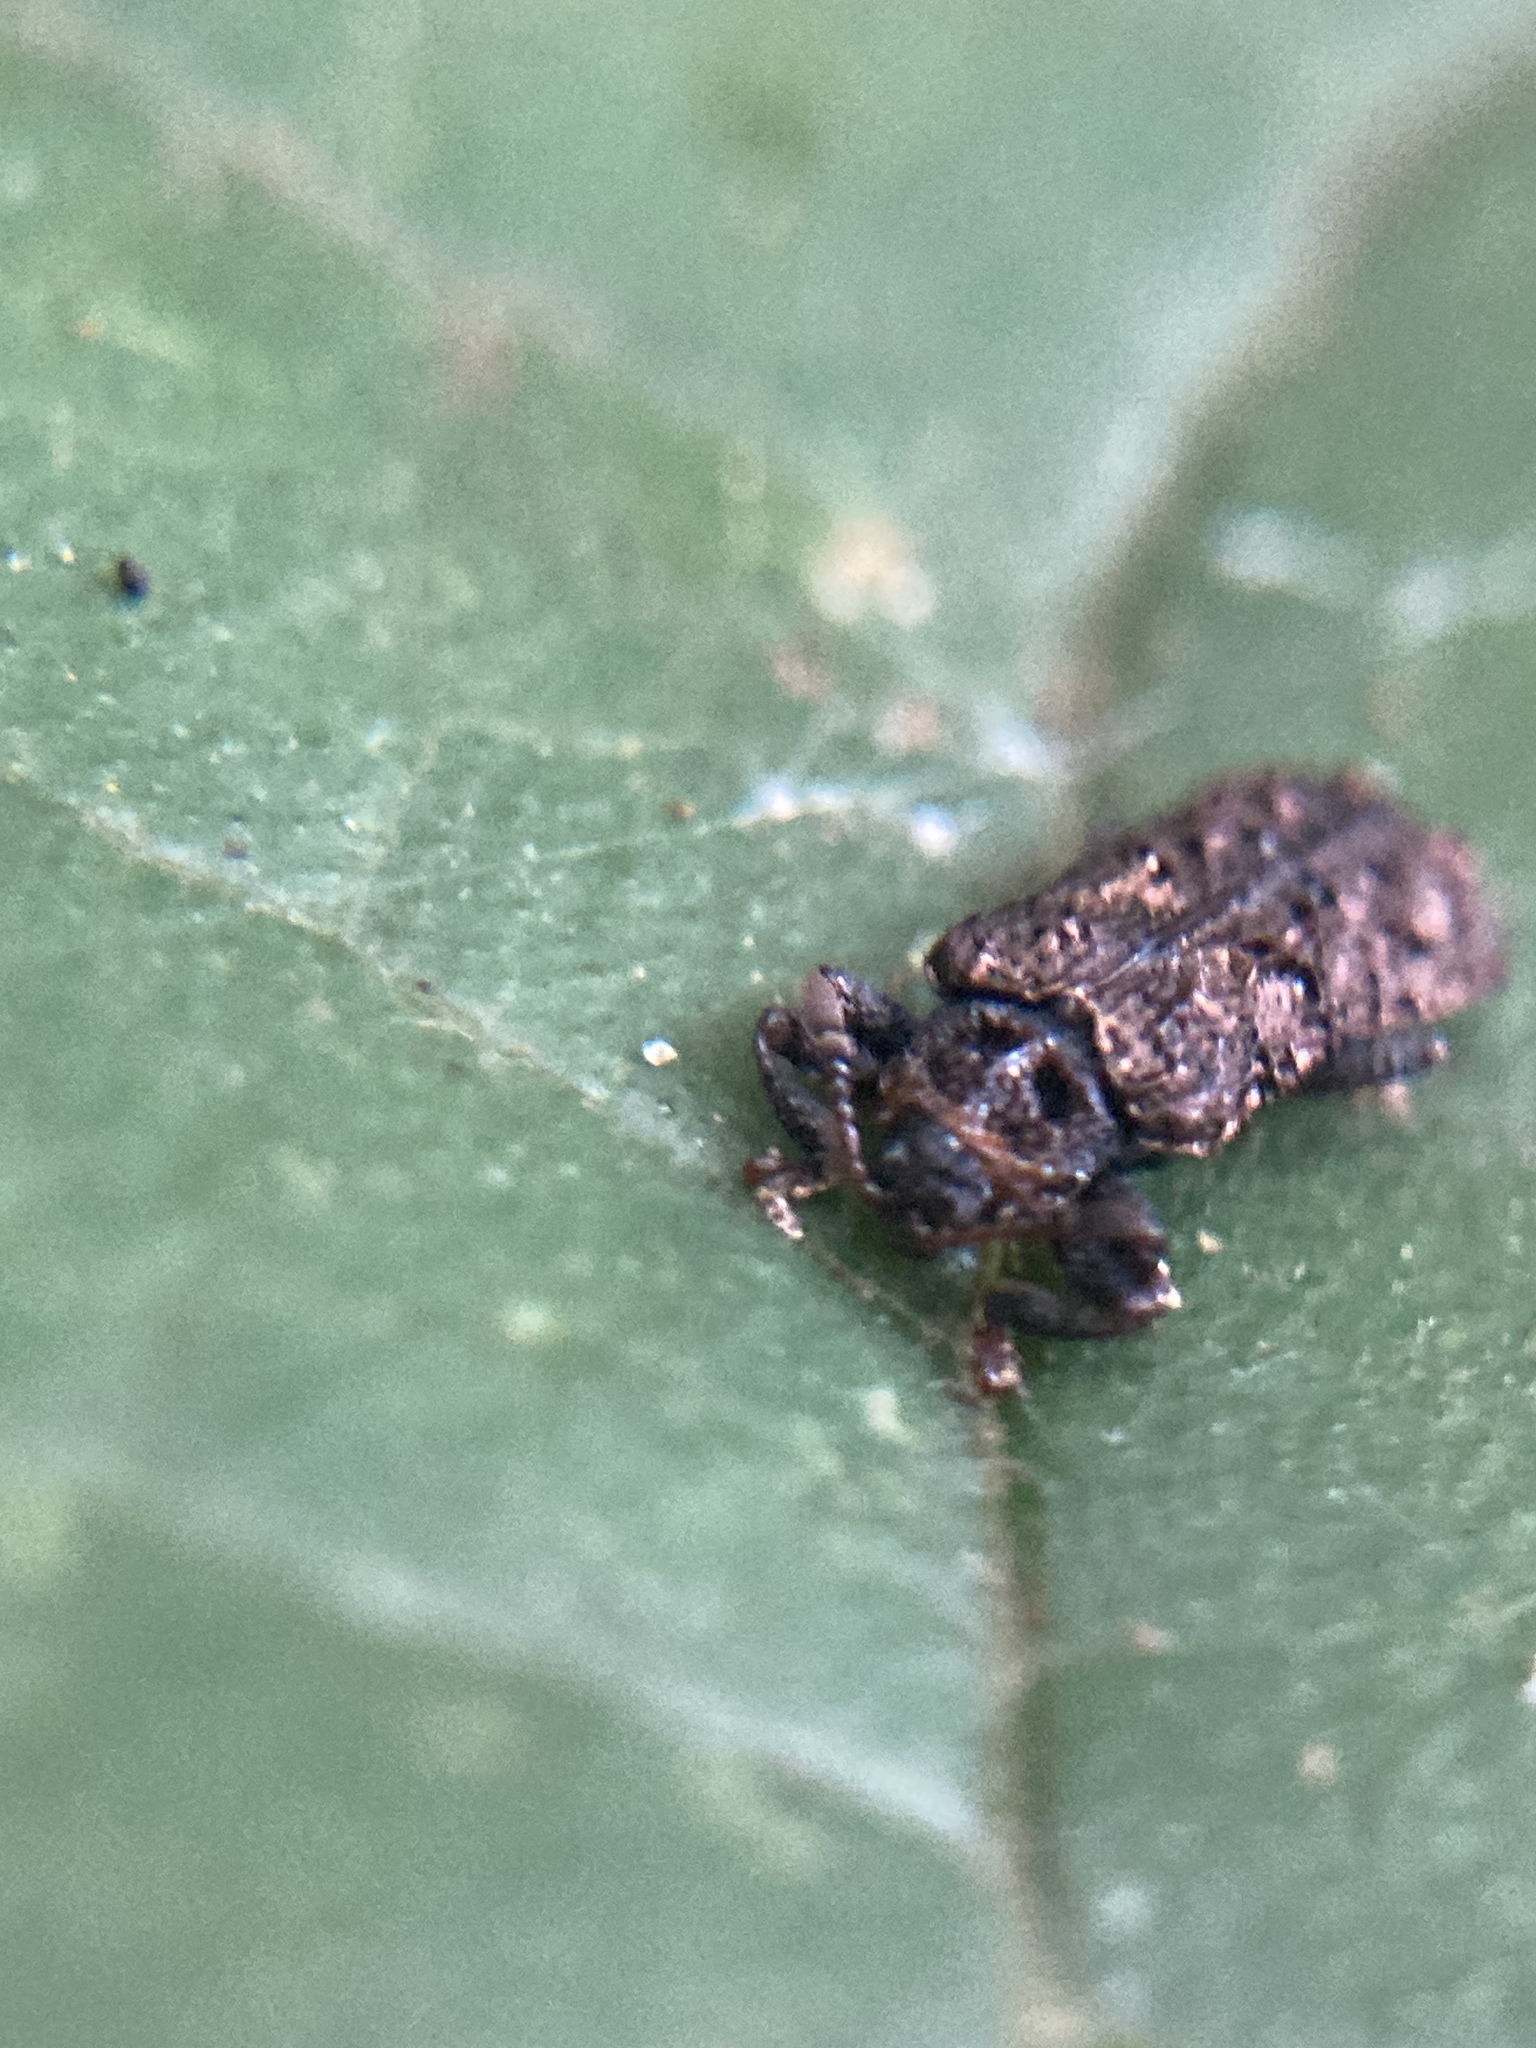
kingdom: Animalia
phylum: Arthropoda
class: Insecta
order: Coleoptera
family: Chrysomelidae
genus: Octotoma
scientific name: Octotoma scabripennis
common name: Beetle
